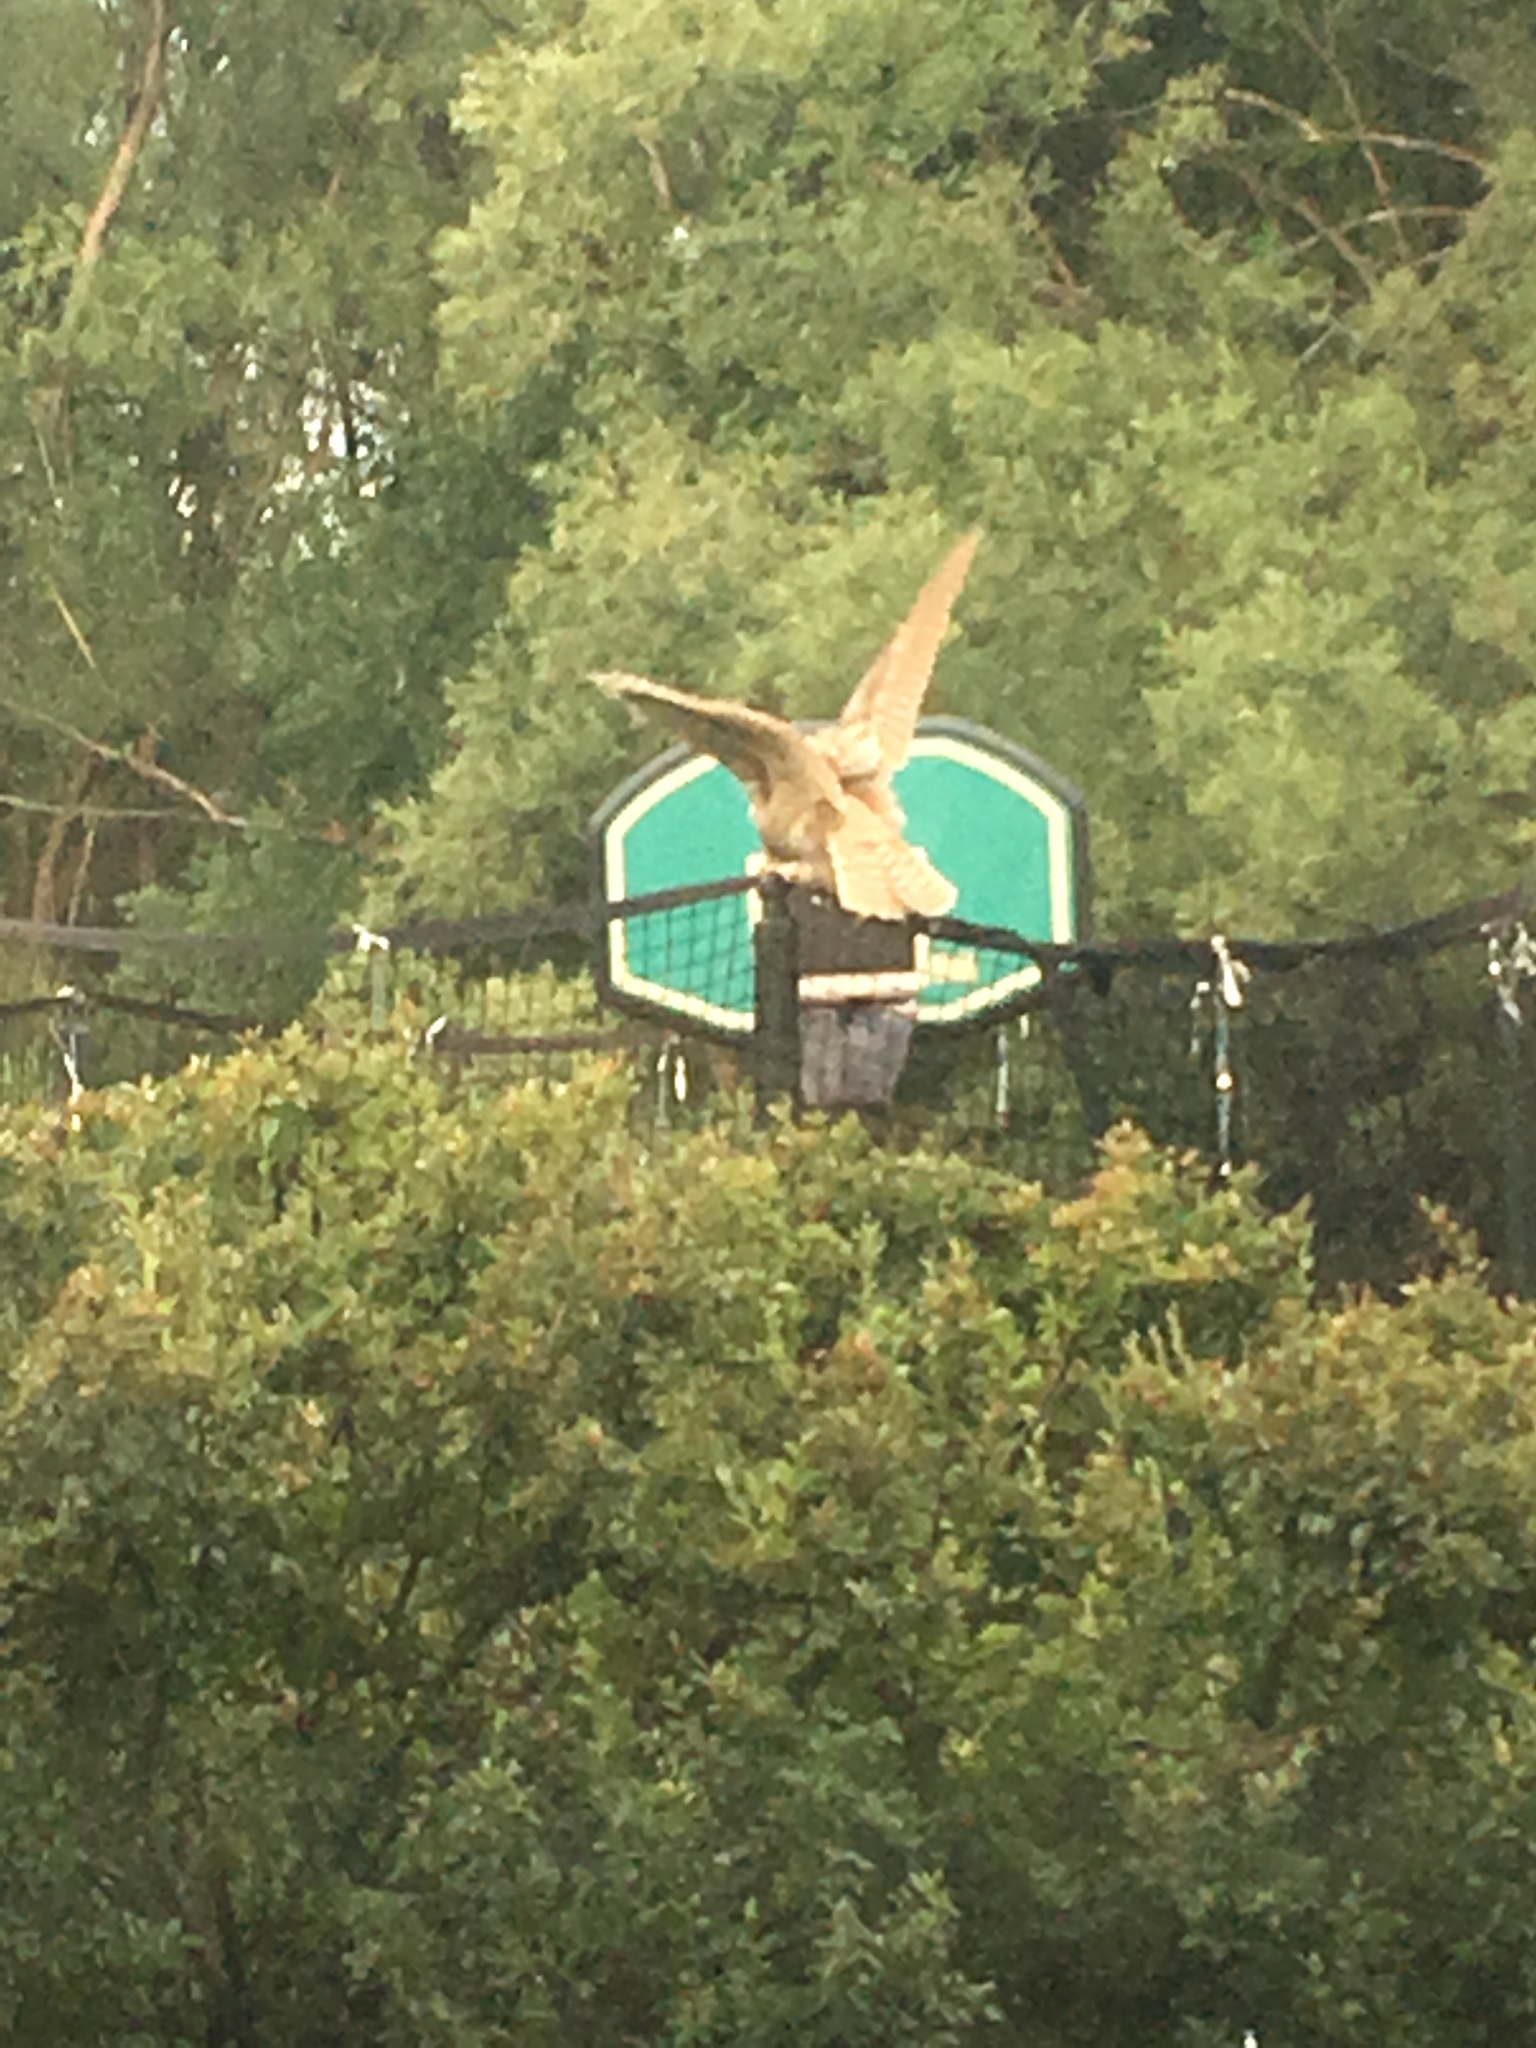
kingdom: Animalia
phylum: Chordata
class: Aves
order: Strigiformes
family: Strigidae
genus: Bubo
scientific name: Bubo virginianus
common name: Great horned owl
